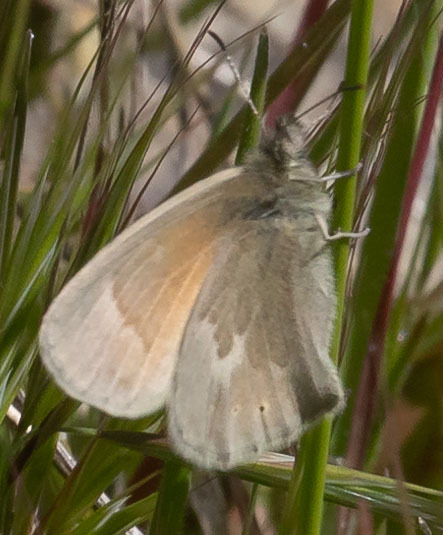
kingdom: Animalia
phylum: Arthropoda
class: Insecta
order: Lepidoptera
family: Nymphalidae
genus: Coenonympha
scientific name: Coenonympha california
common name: Common ringlet
